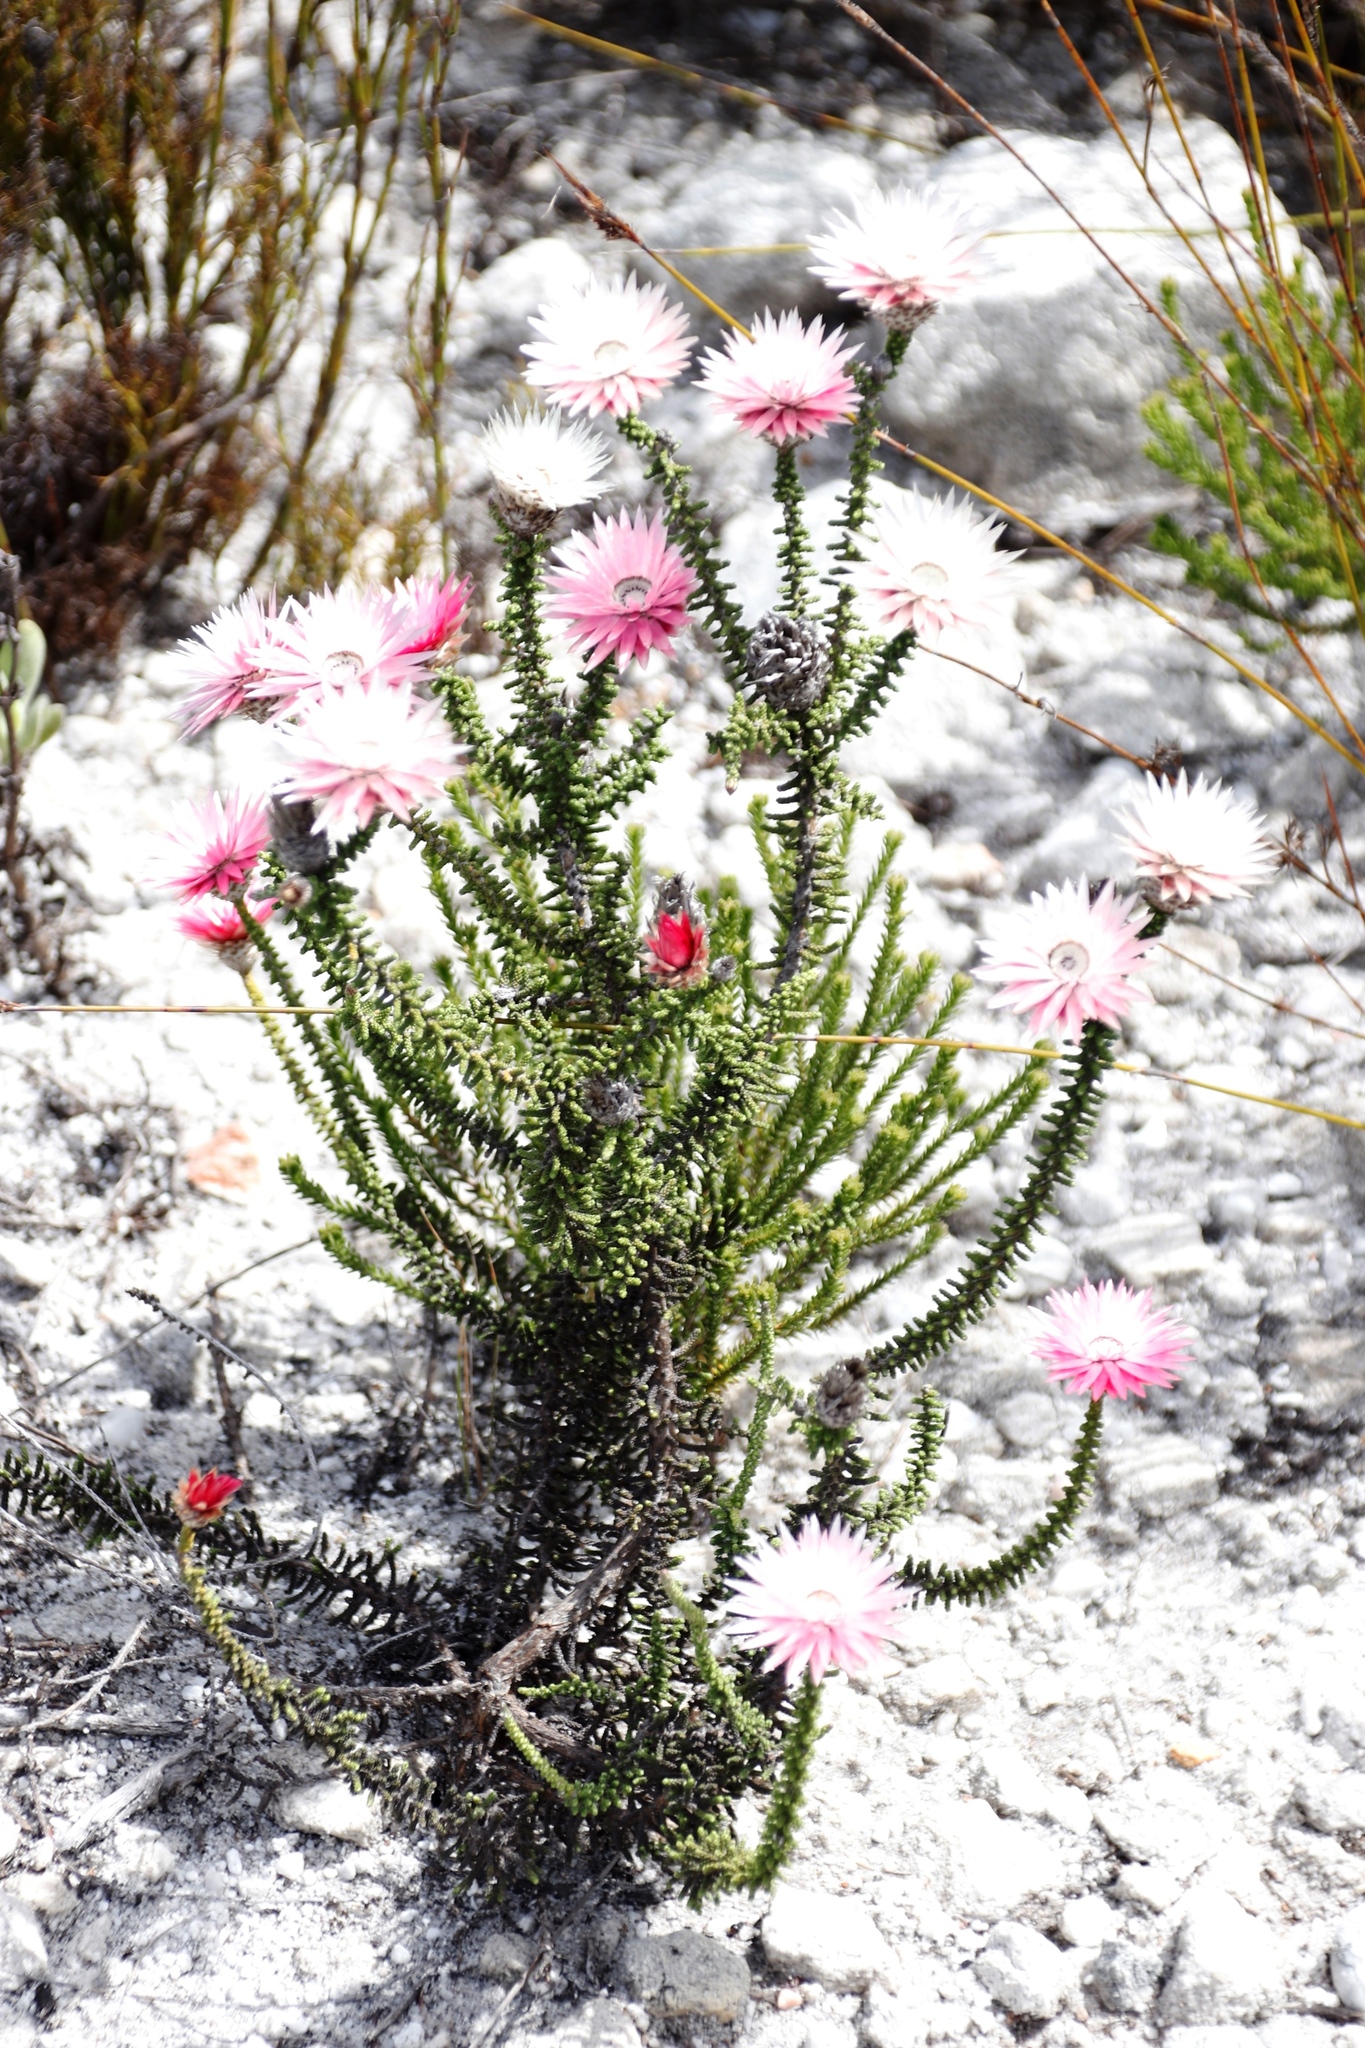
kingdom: Plantae
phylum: Tracheophyta
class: Magnoliopsida
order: Asterales
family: Asteraceae
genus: Phaenocoma
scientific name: Phaenocoma prolifera
